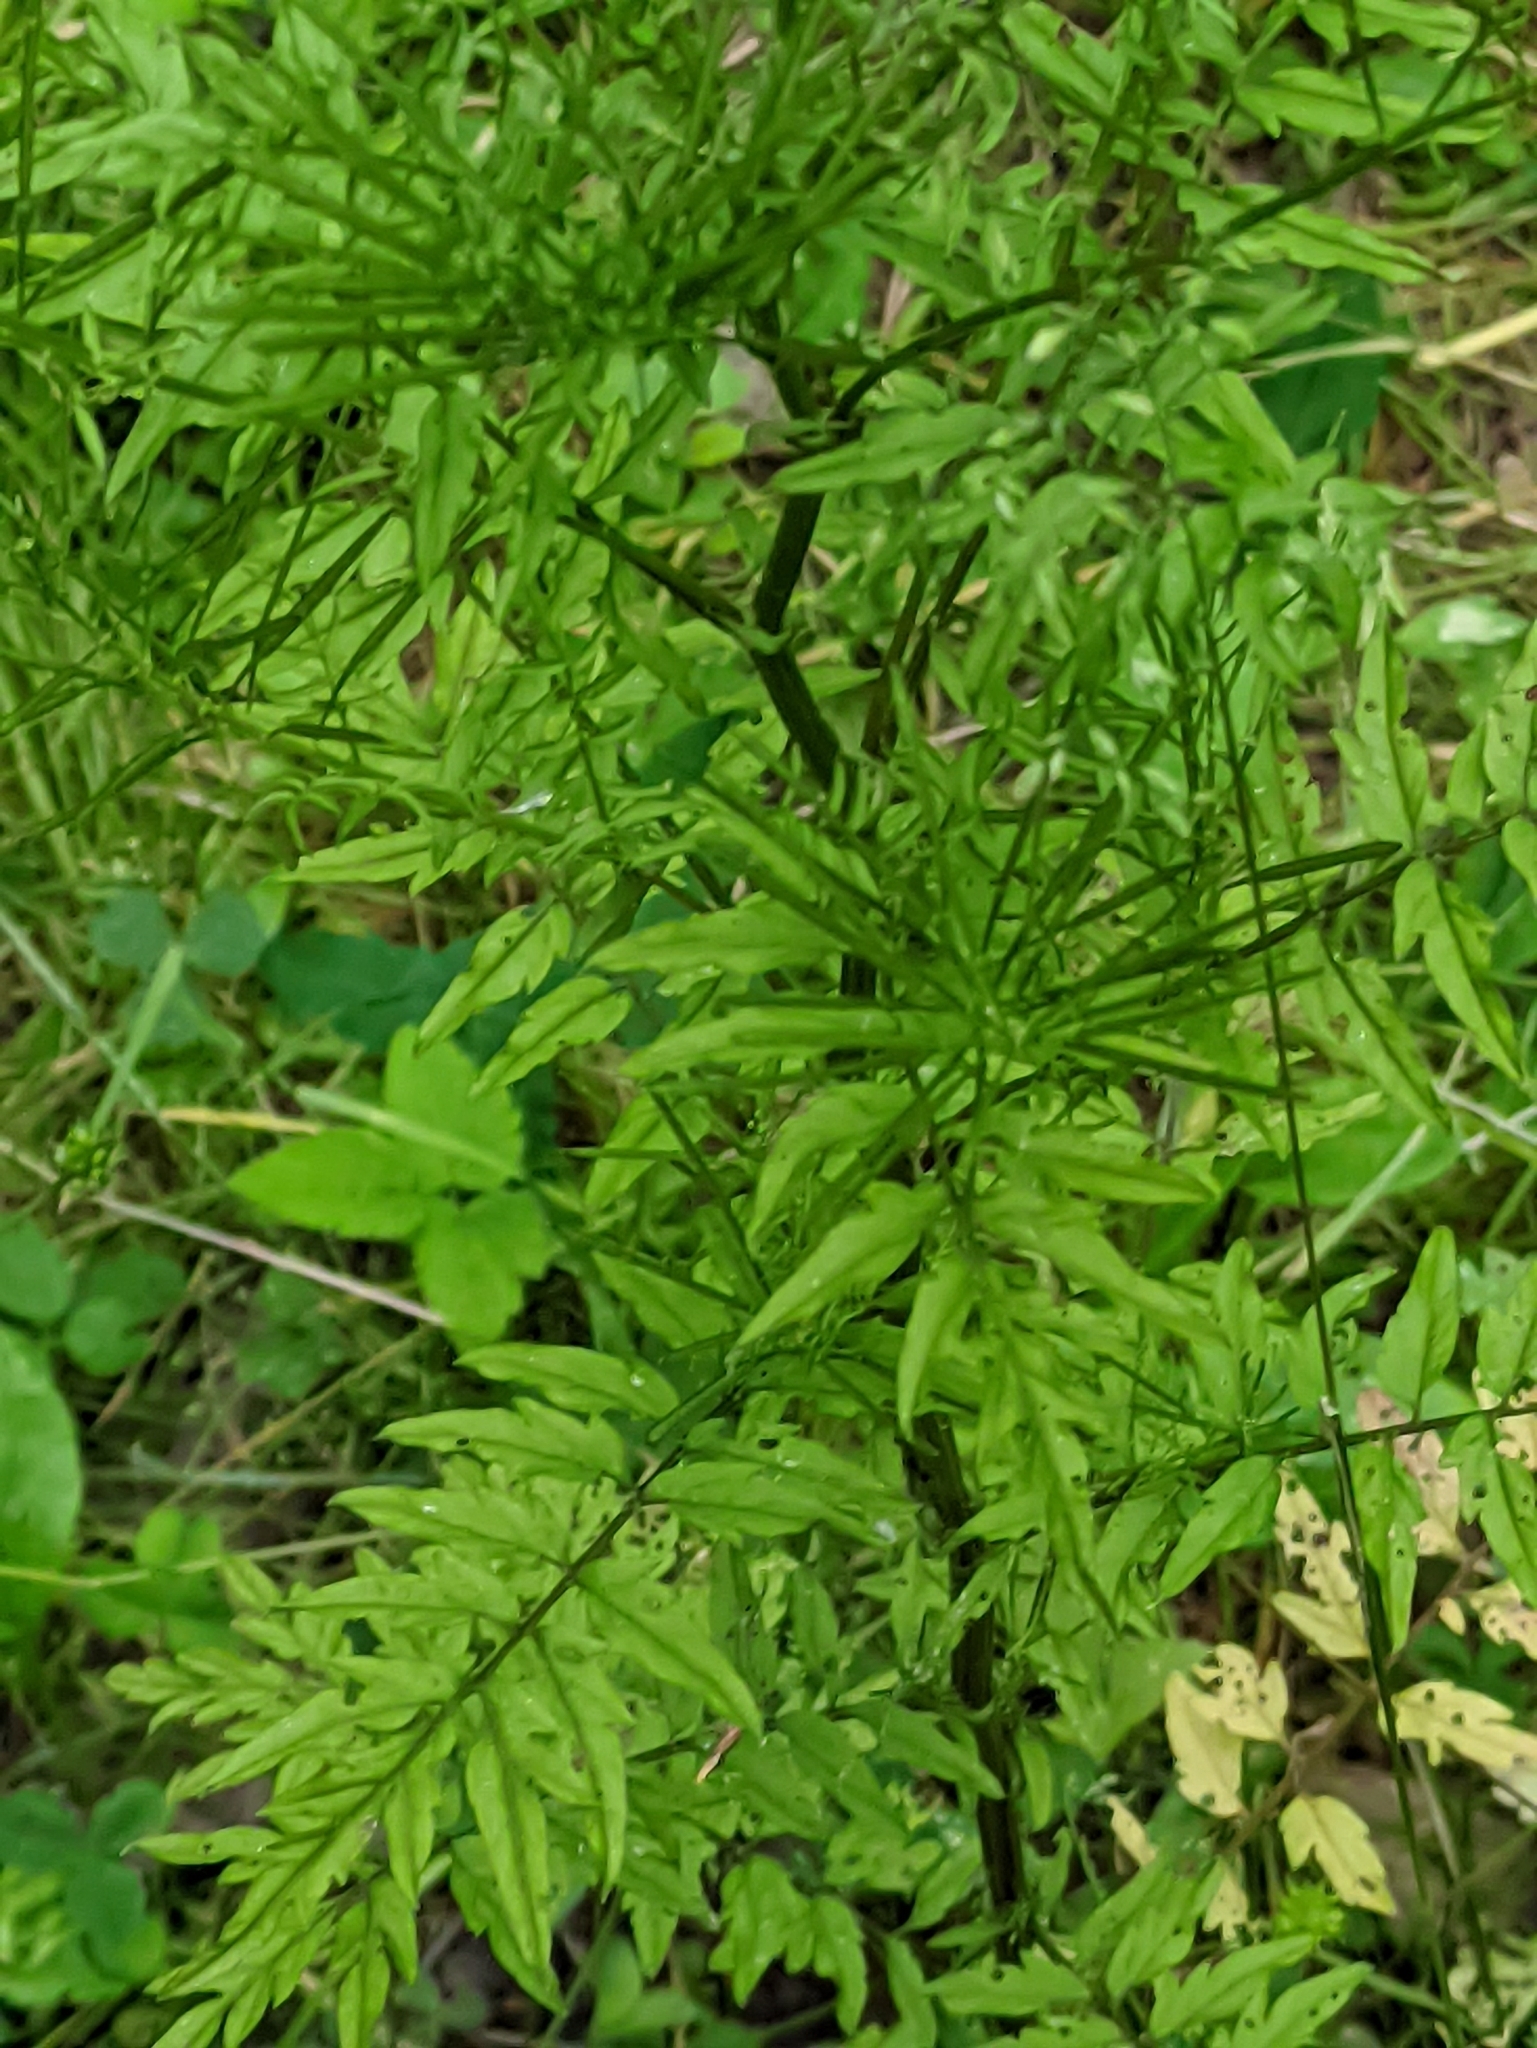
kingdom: Plantae
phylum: Tracheophyta
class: Magnoliopsida
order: Brassicales
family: Brassicaceae
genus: Cardamine
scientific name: Cardamine impatiens
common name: Narrow-leaved bitter-cress
